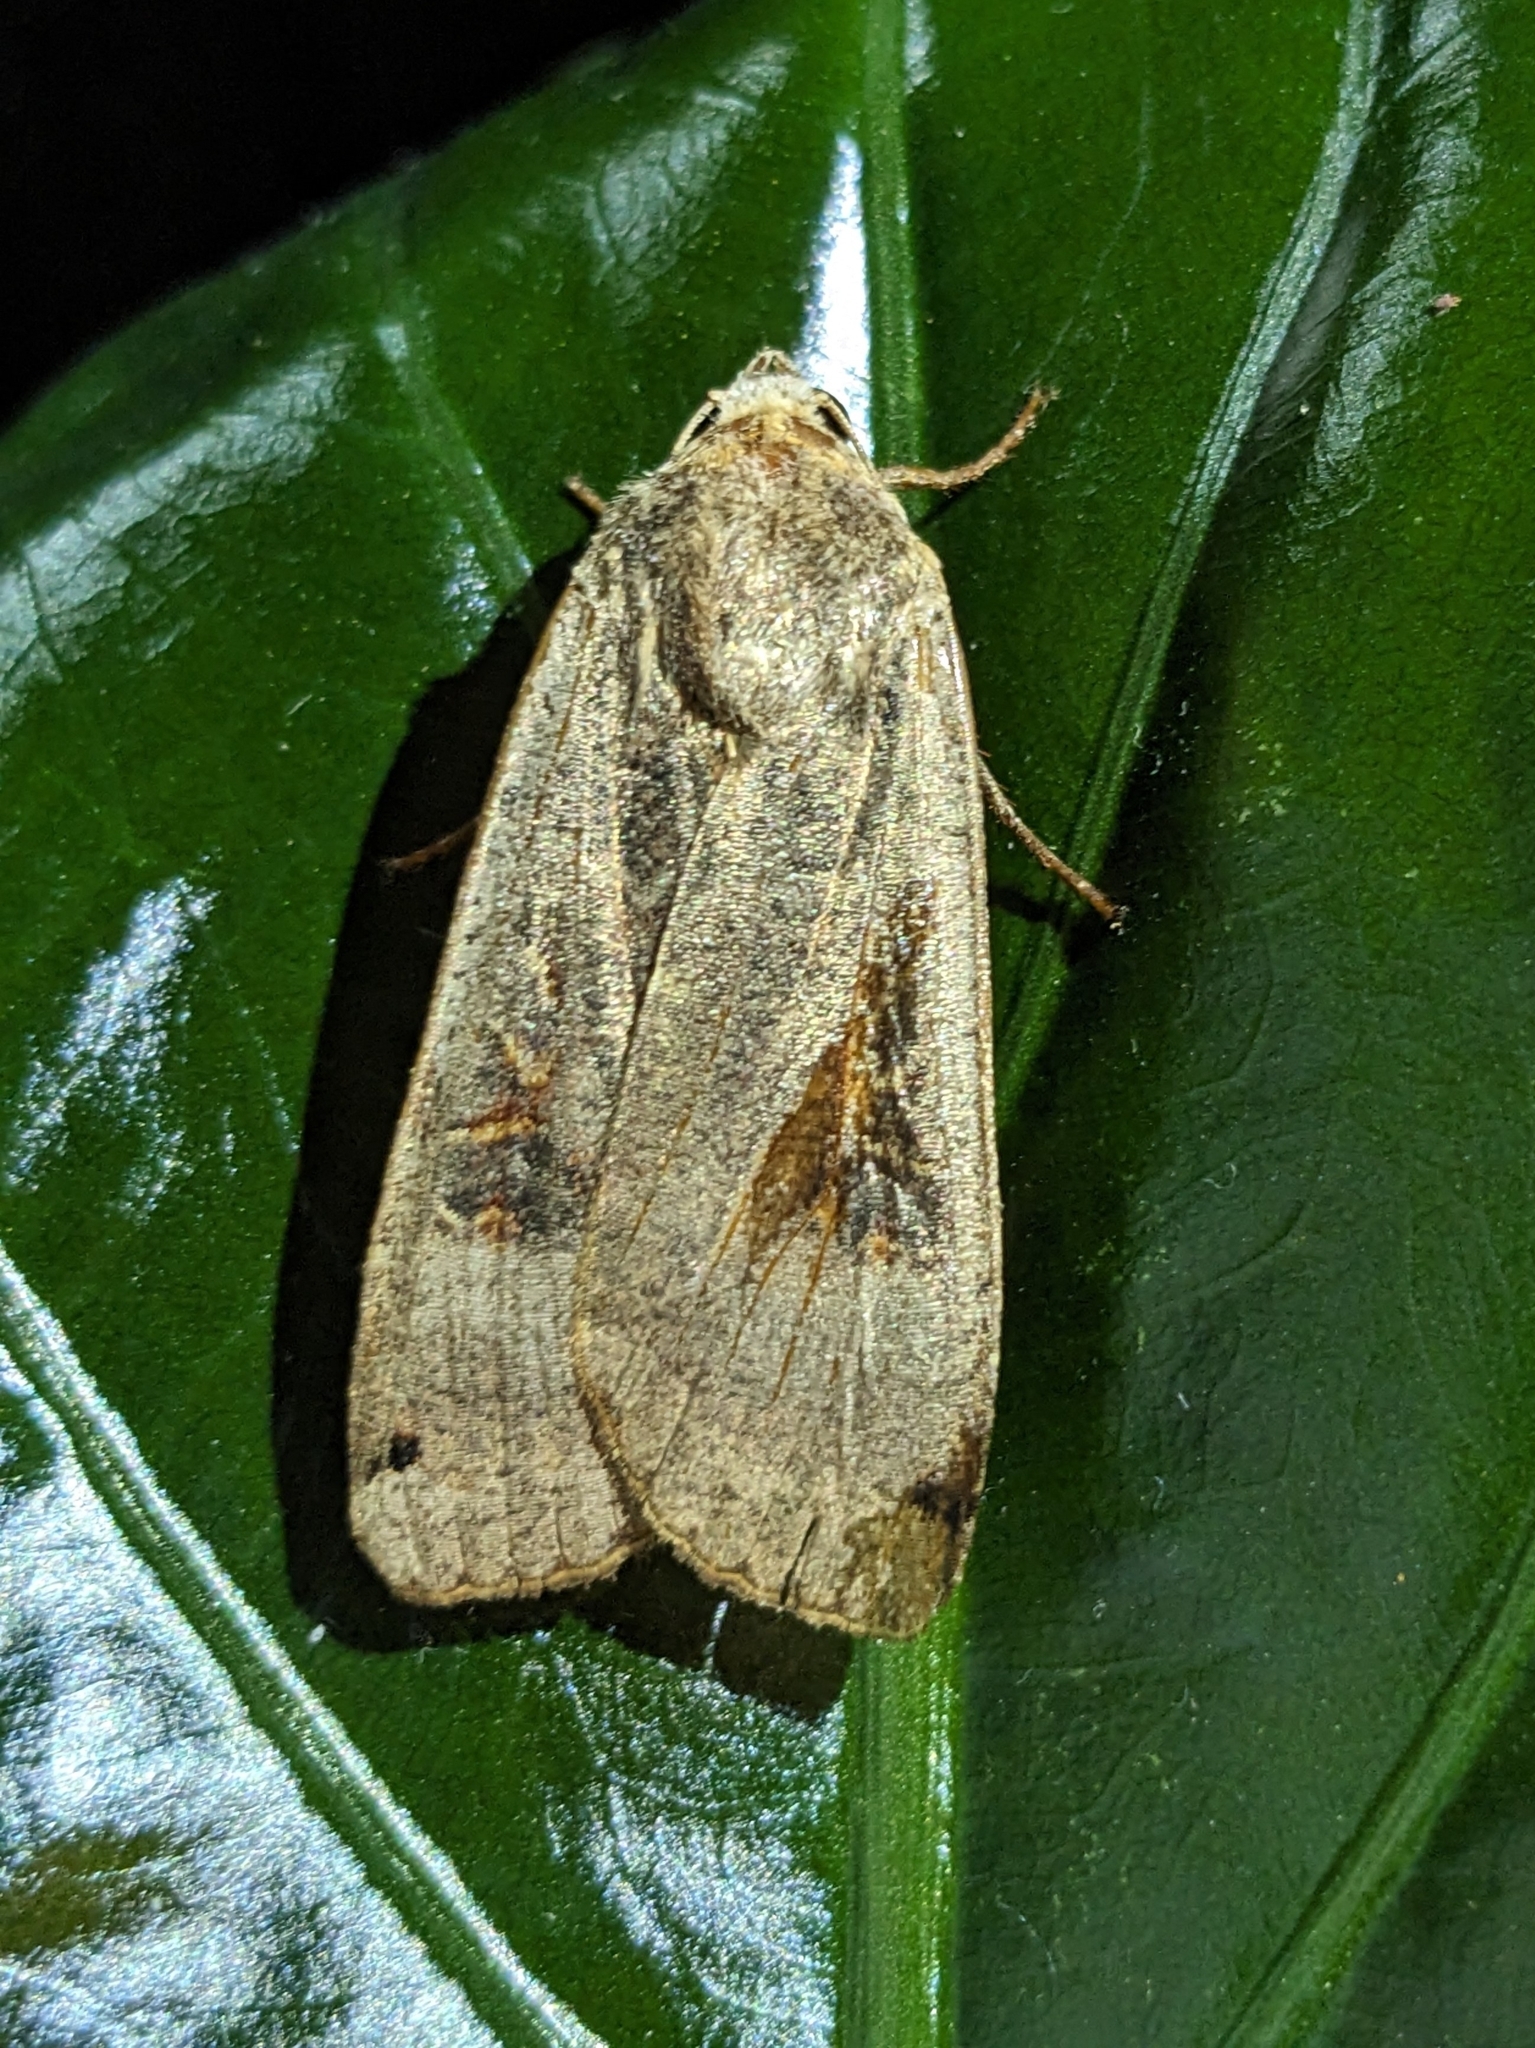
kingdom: Animalia
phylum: Arthropoda
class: Insecta
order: Lepidoptera
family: Noctuidae
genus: Noctua
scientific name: Noctua pronuba
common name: Large yellow underwing
